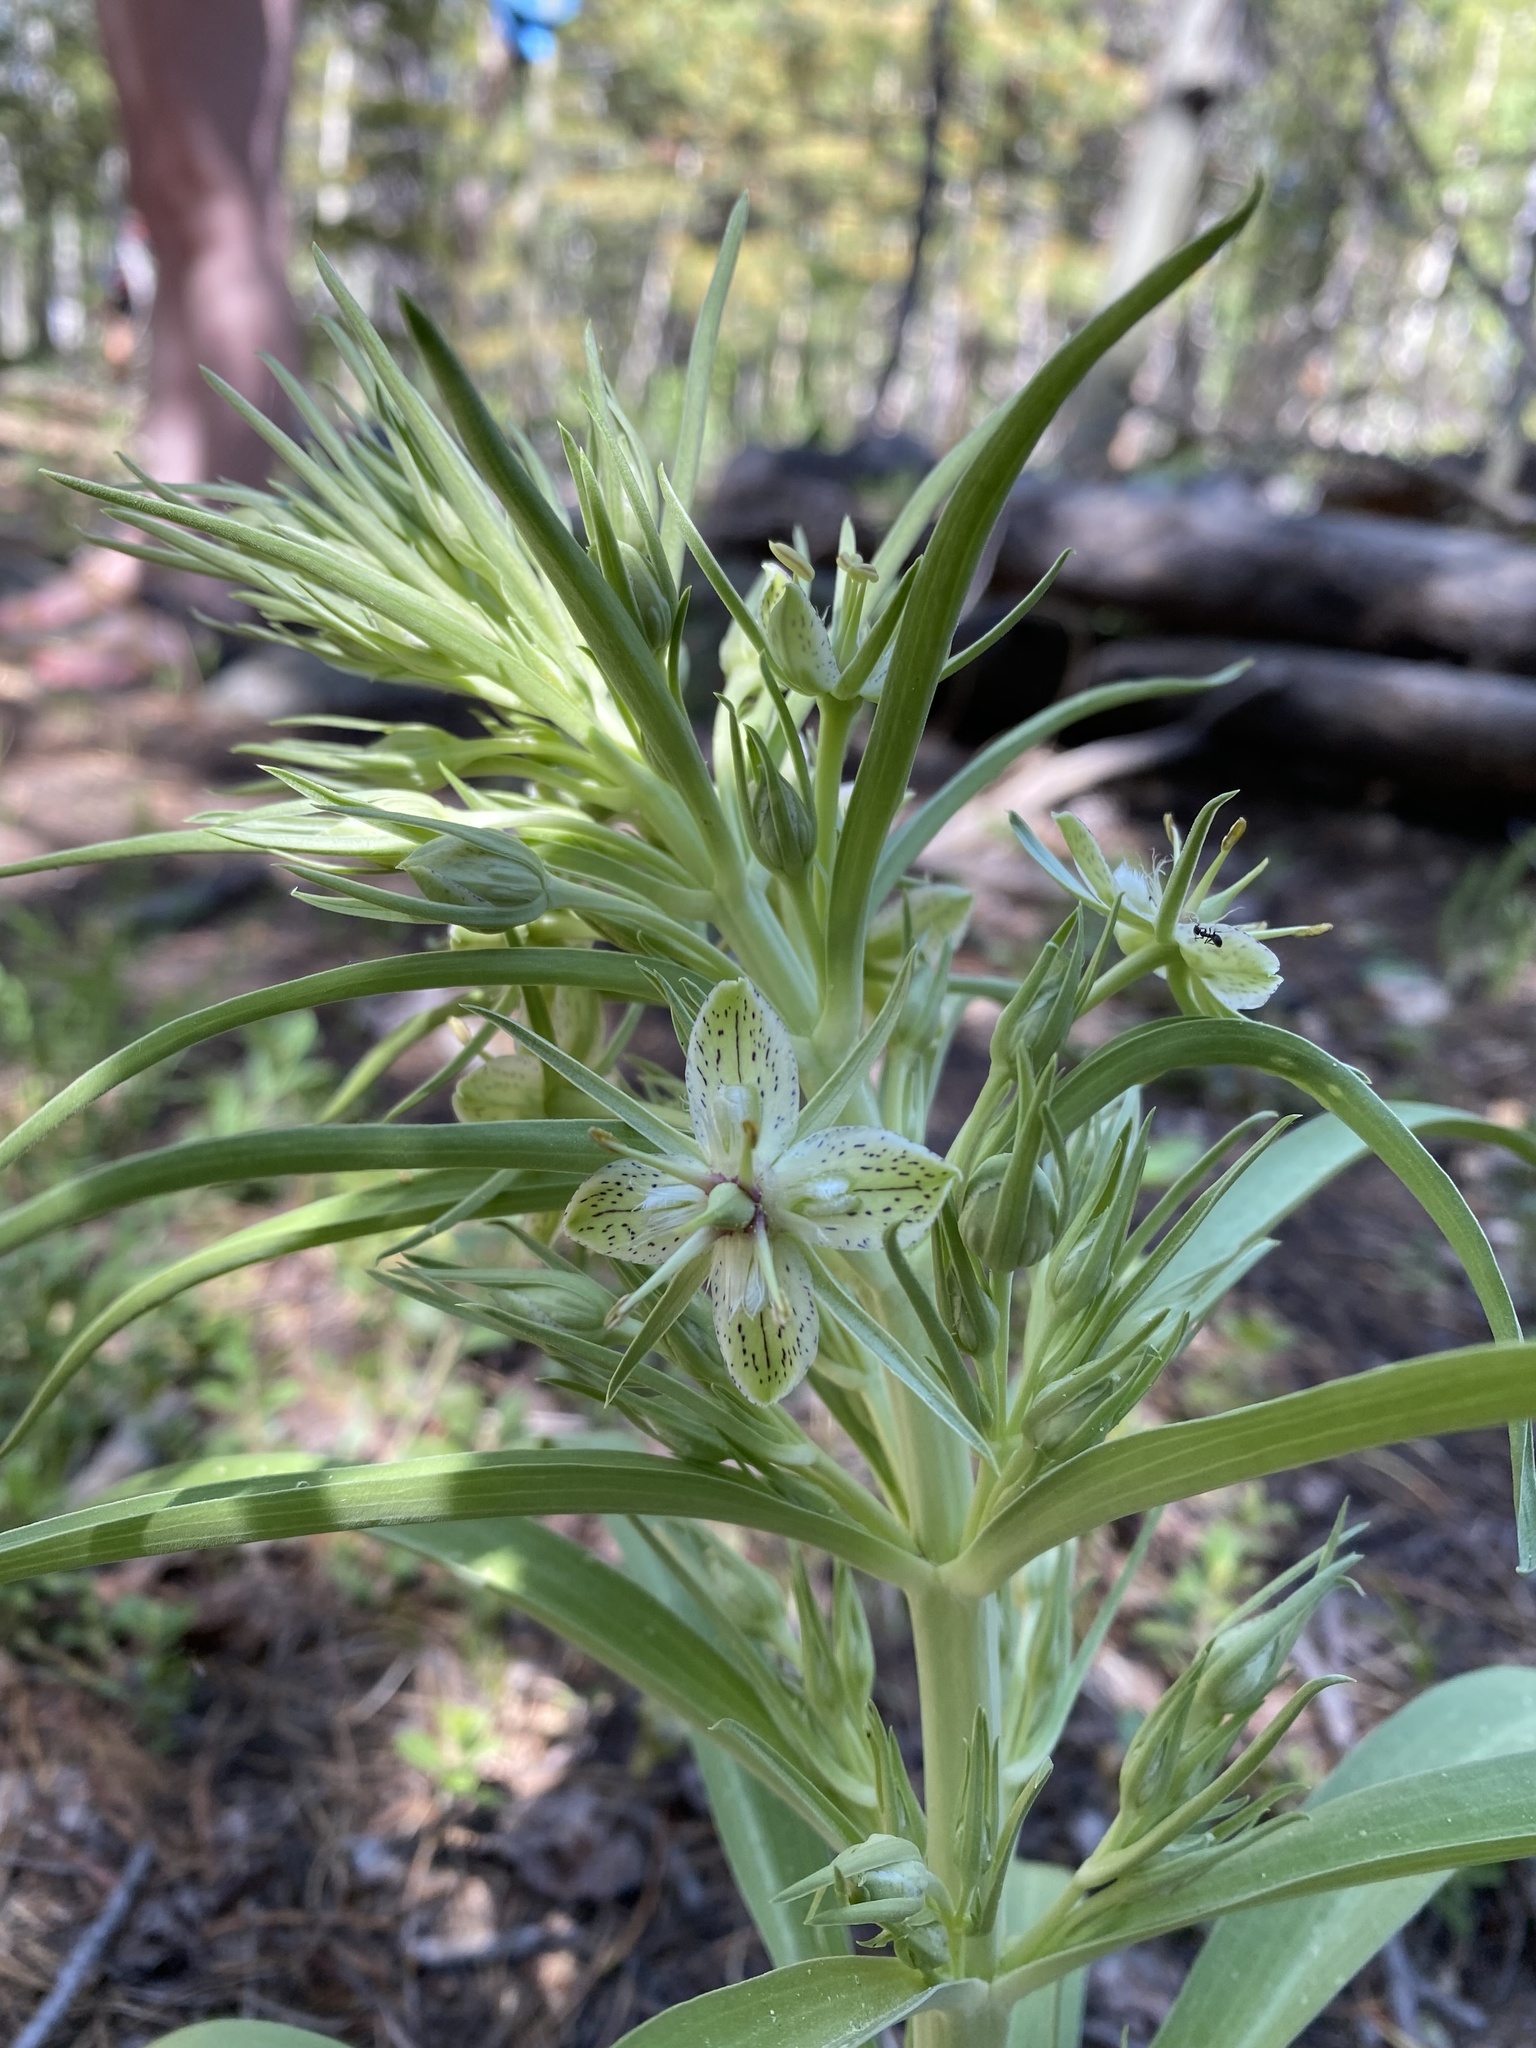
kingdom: Plantae
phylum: Tracheophyta
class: Magnoliopsida
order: Gentianales
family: Gentianaceae
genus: Frasera
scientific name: Frasera speciosa
